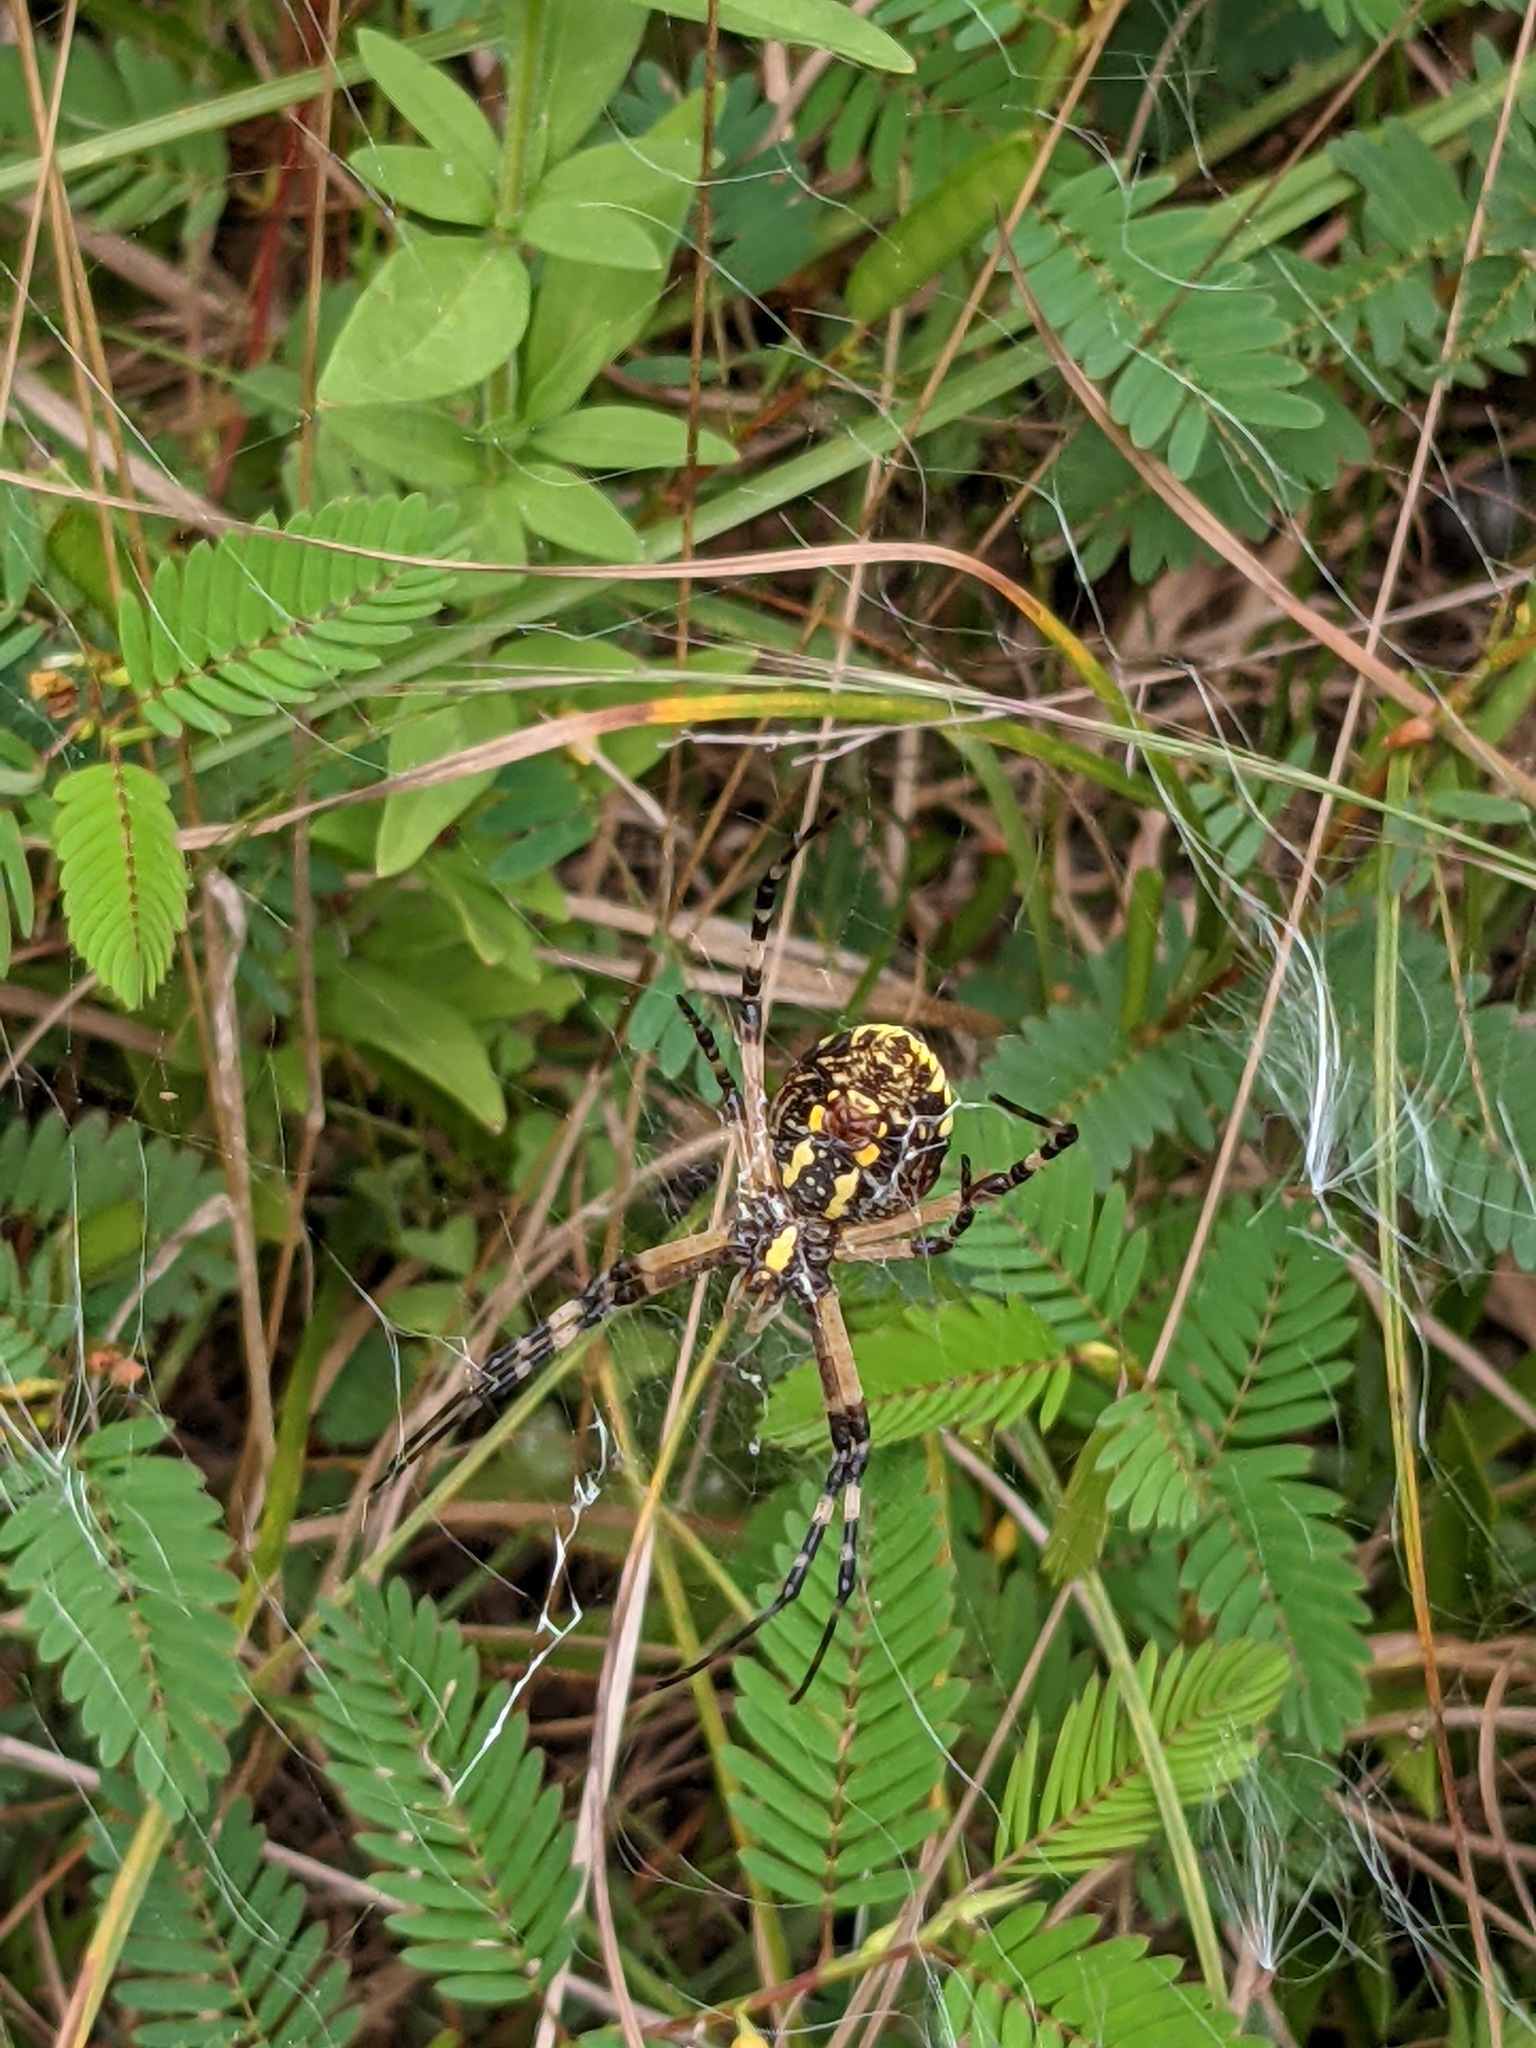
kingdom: Animalia
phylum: Arthropoda
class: Arachnida
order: Araneae
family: Araneidae
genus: Argiope
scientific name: Argiope aurantia
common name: Orb weavers
